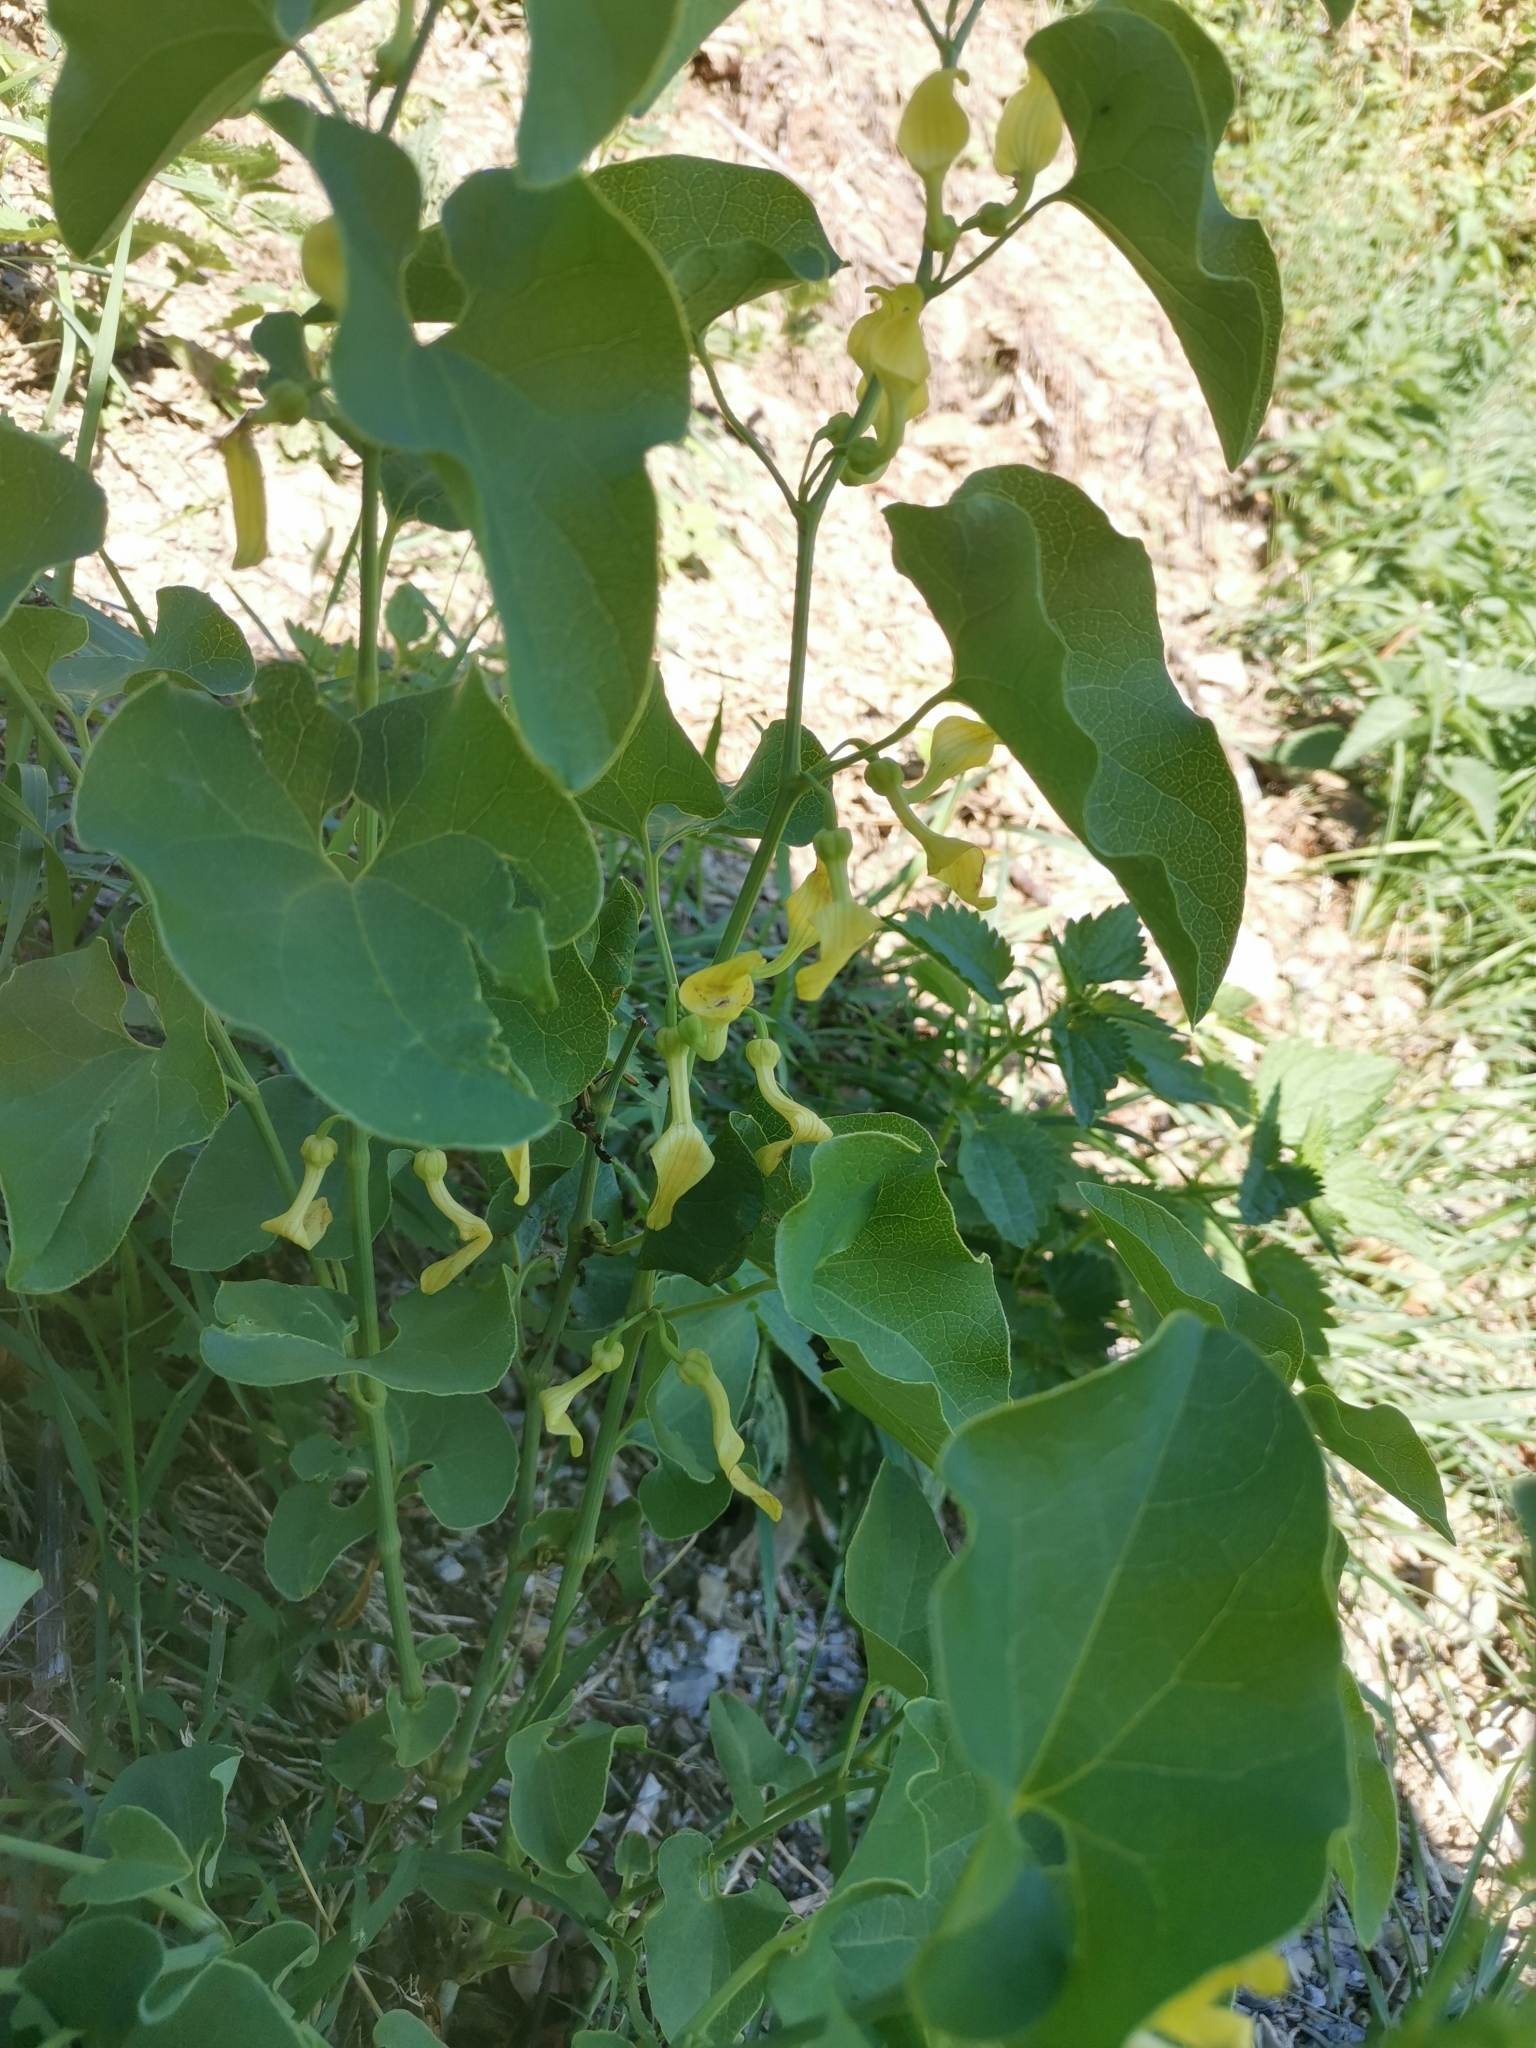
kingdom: Plantae
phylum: Tracheophyta
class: Magnoliopsida
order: Piperales
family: Aristolochiaceae
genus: Aristolochia
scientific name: Aristolochia clematitis
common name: Birthwort
